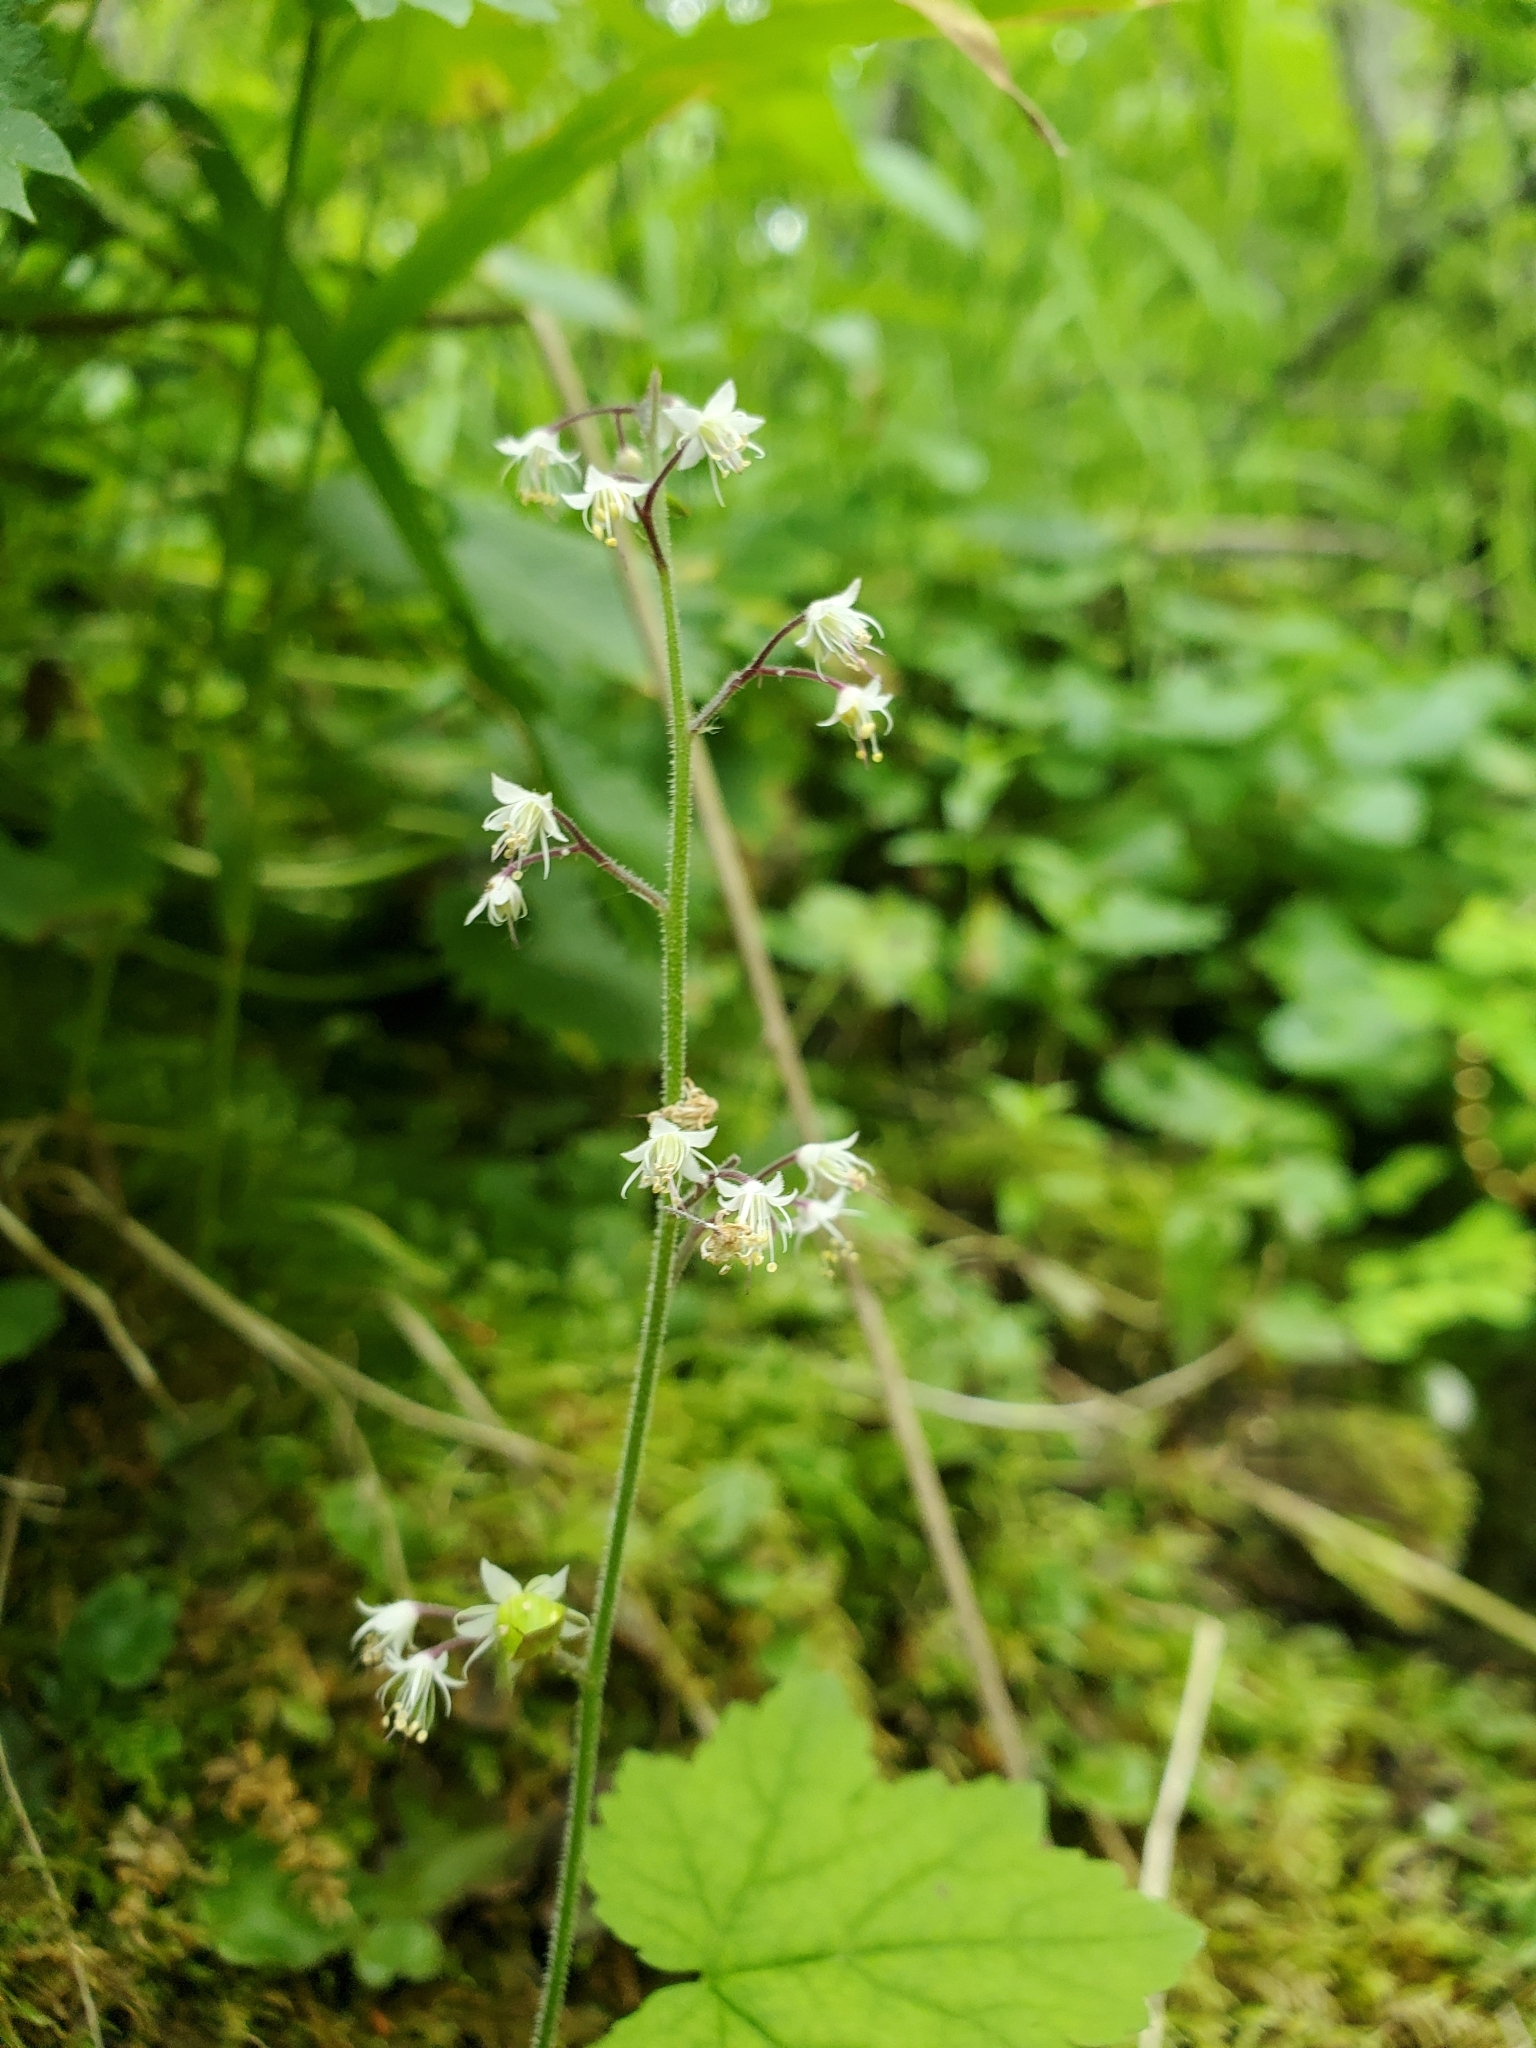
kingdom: Plantae
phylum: Tracheophyta
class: Magnoliopsida
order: Saxifragales
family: Saxifragaceae
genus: Tiarella
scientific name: Tiarella trifoliata
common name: Sugar-scoop
